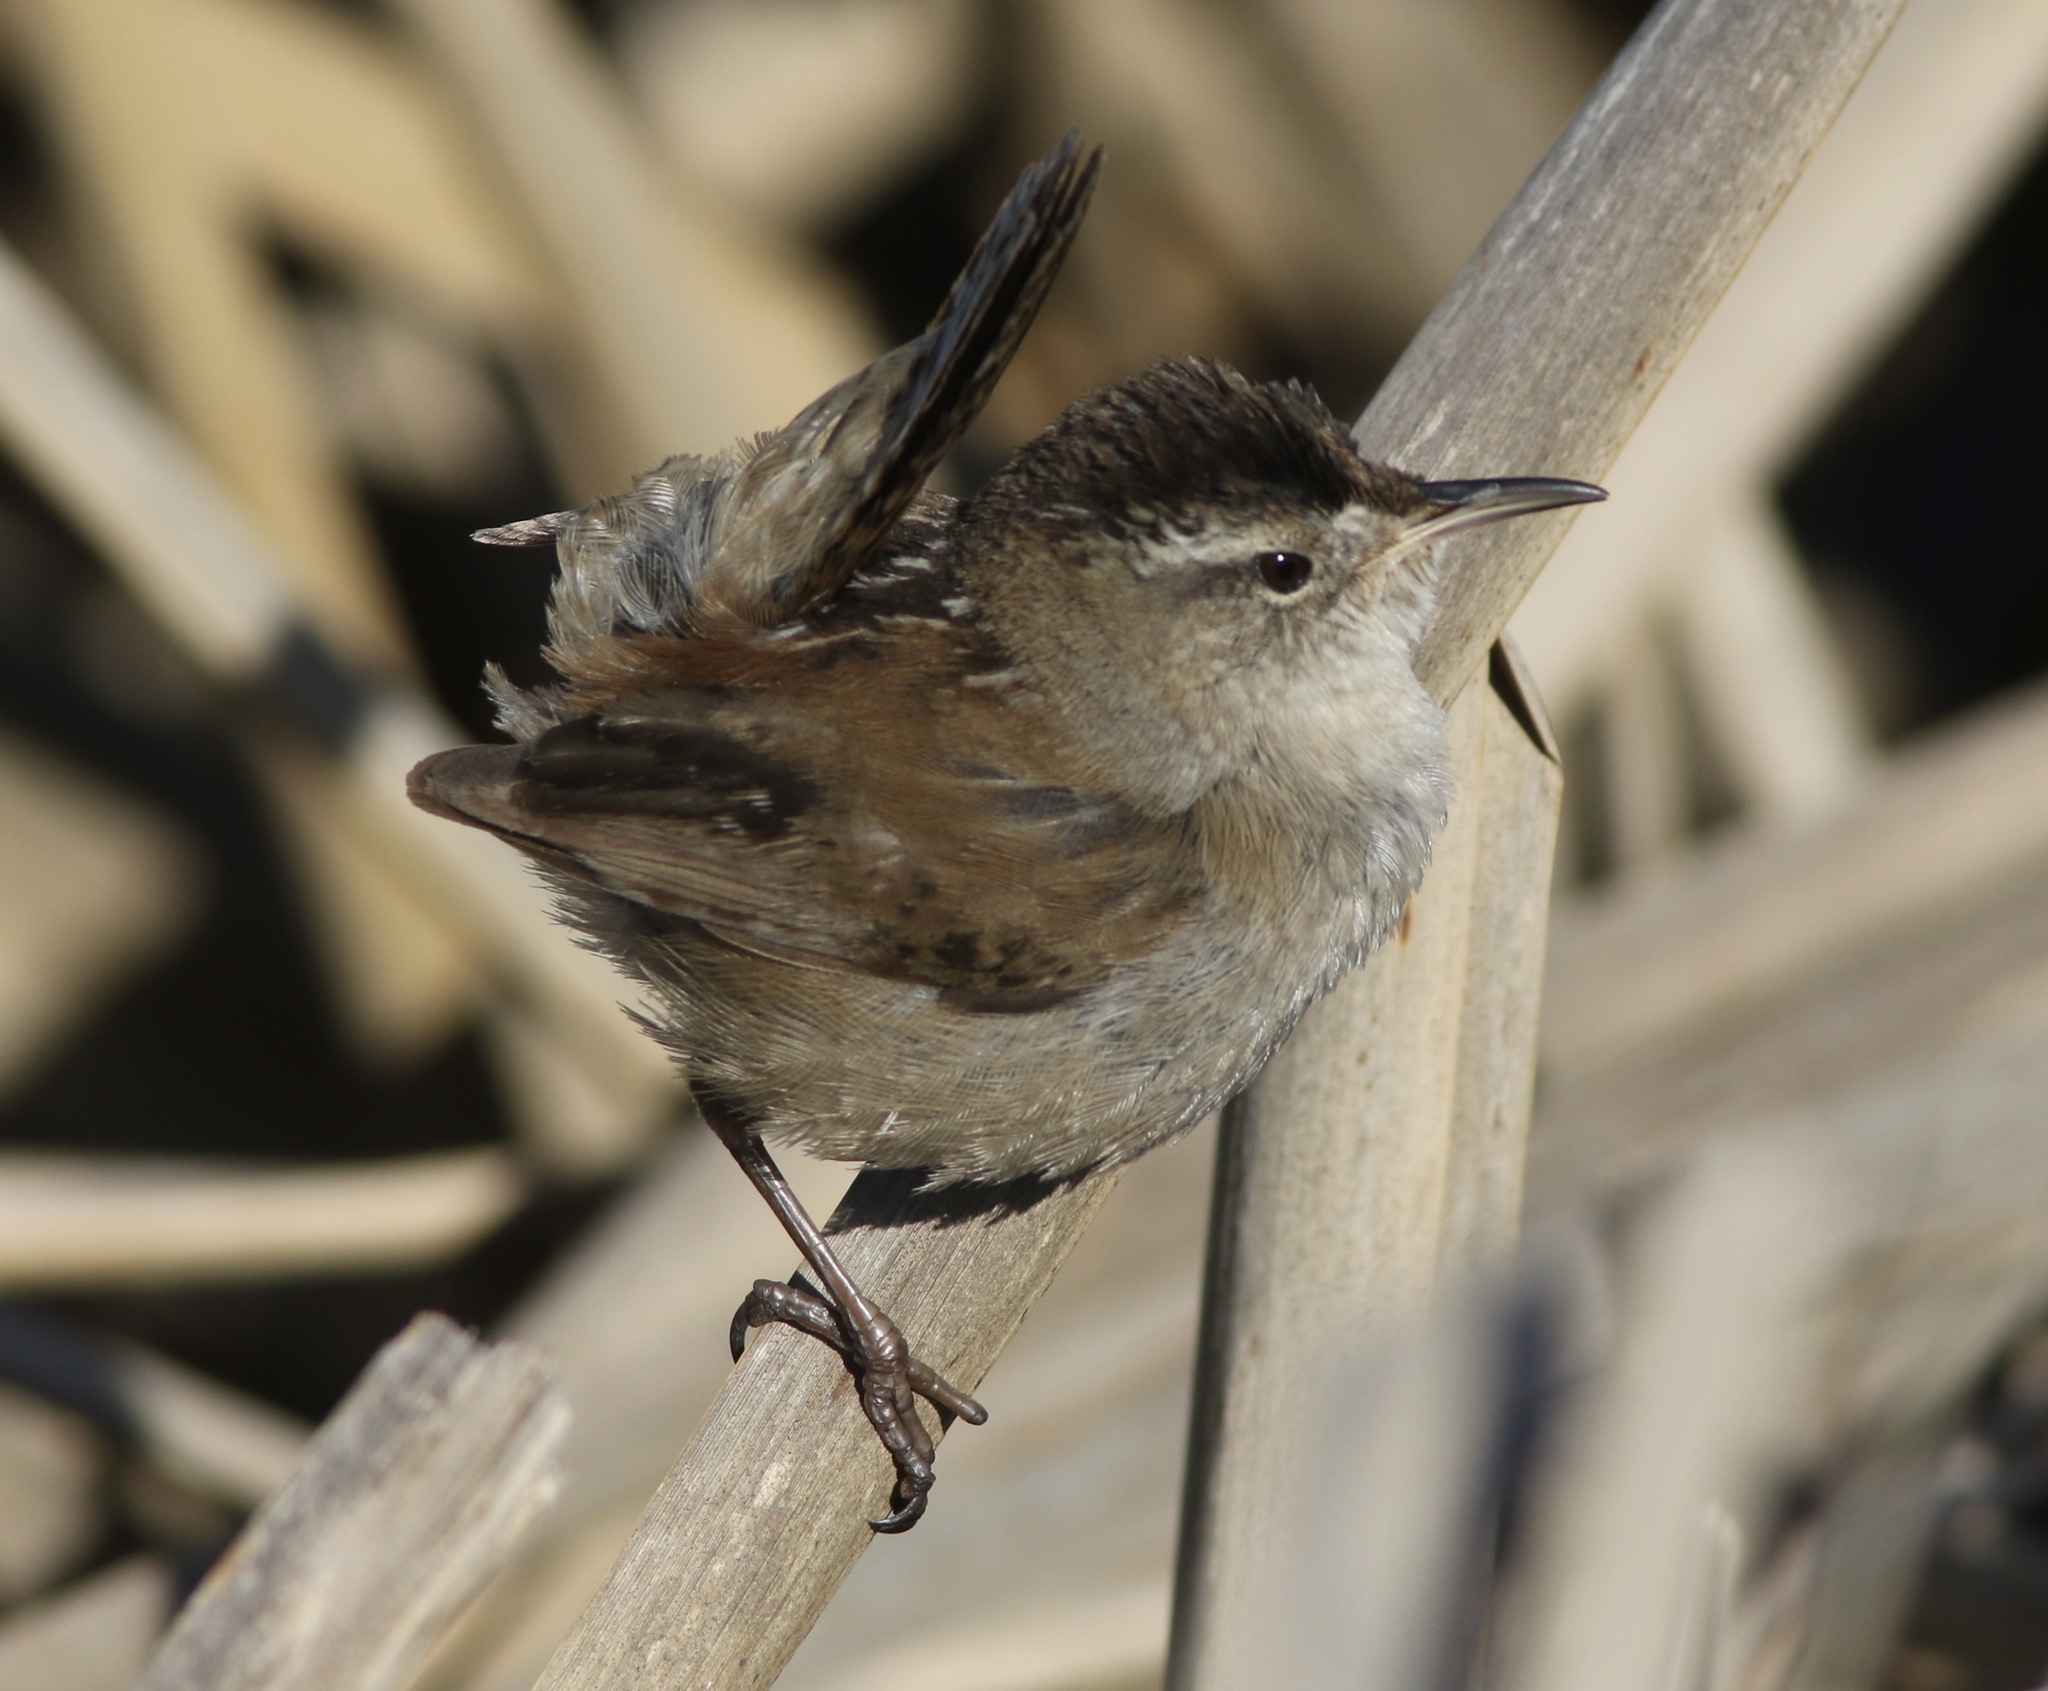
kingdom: Animalia
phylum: Chordata
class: Aves
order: Passeriformes
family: Troglodytidae
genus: Cistothorus
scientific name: Cistothorus palustris
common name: Marsh wren
